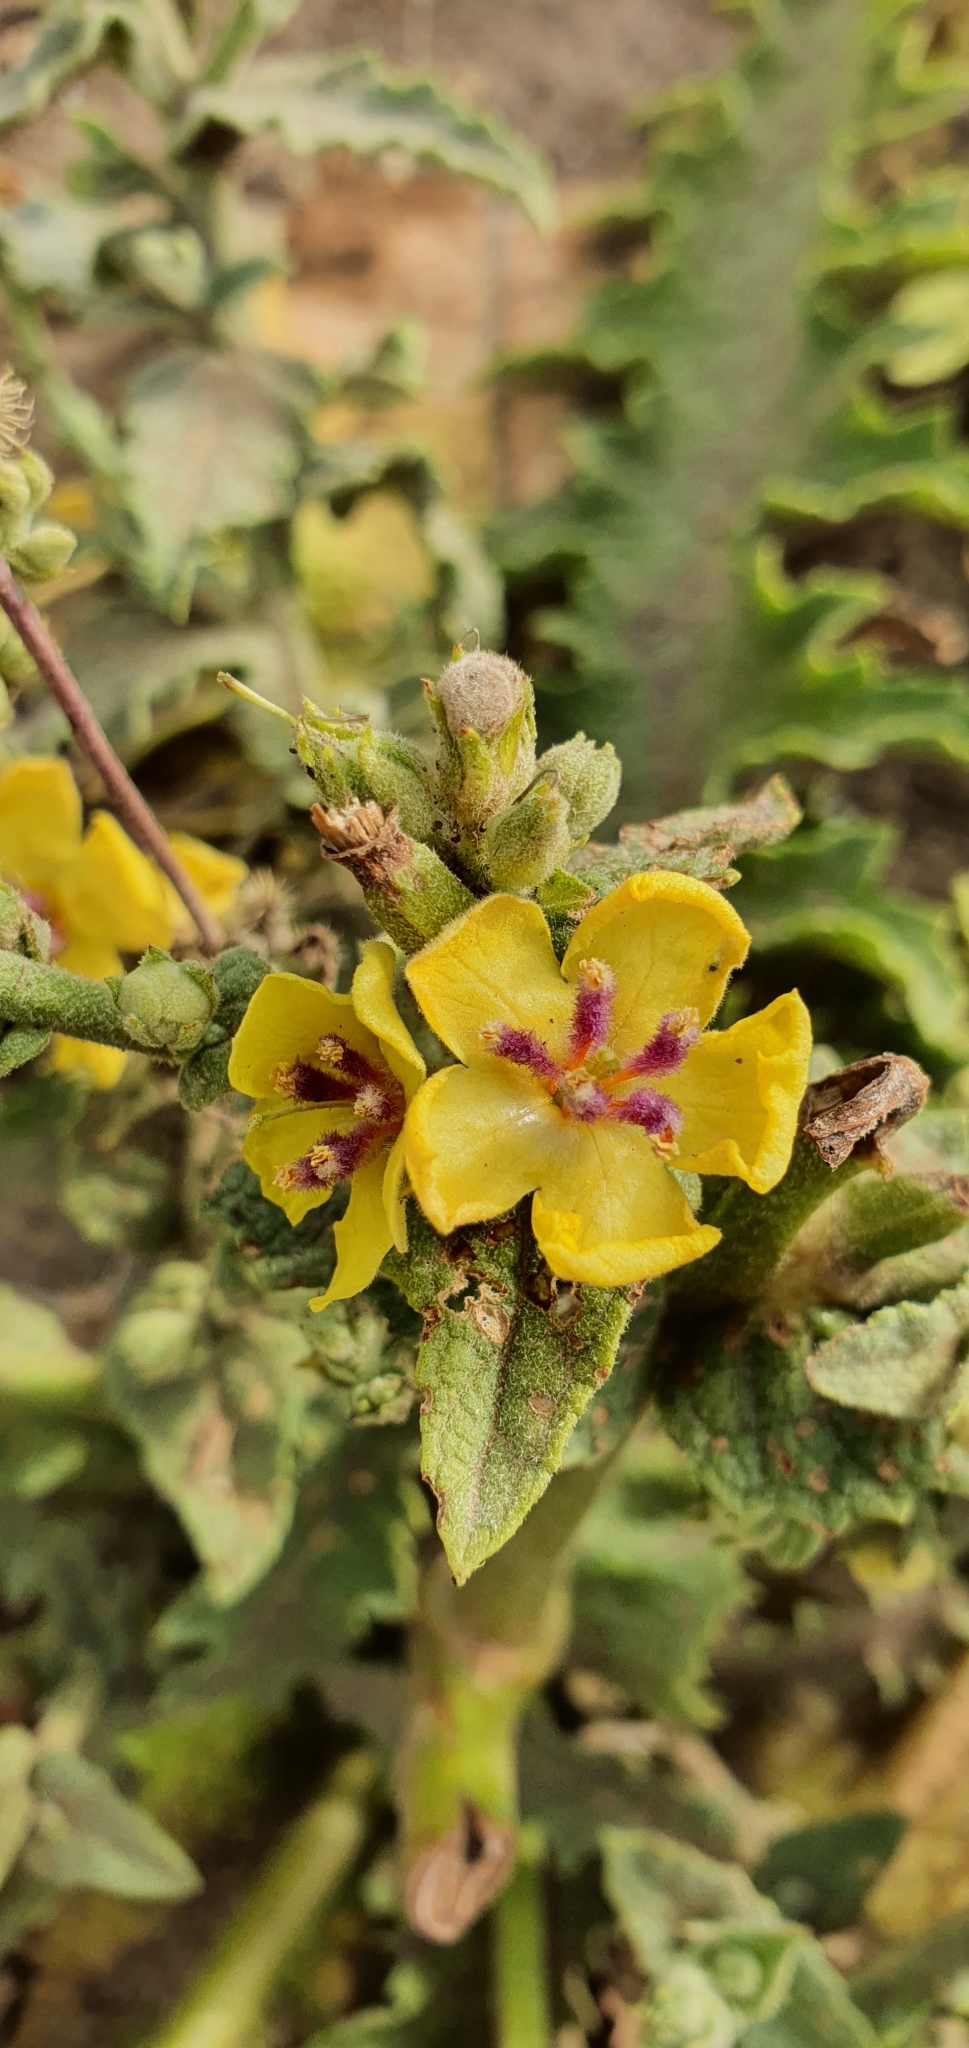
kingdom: Plantae
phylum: Tracheophyta
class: Magnoliopsida
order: Lamiales
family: Scrophulariaceae
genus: Verbascum
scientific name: Verbascum sinuatum
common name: Wavyleaf mullein
